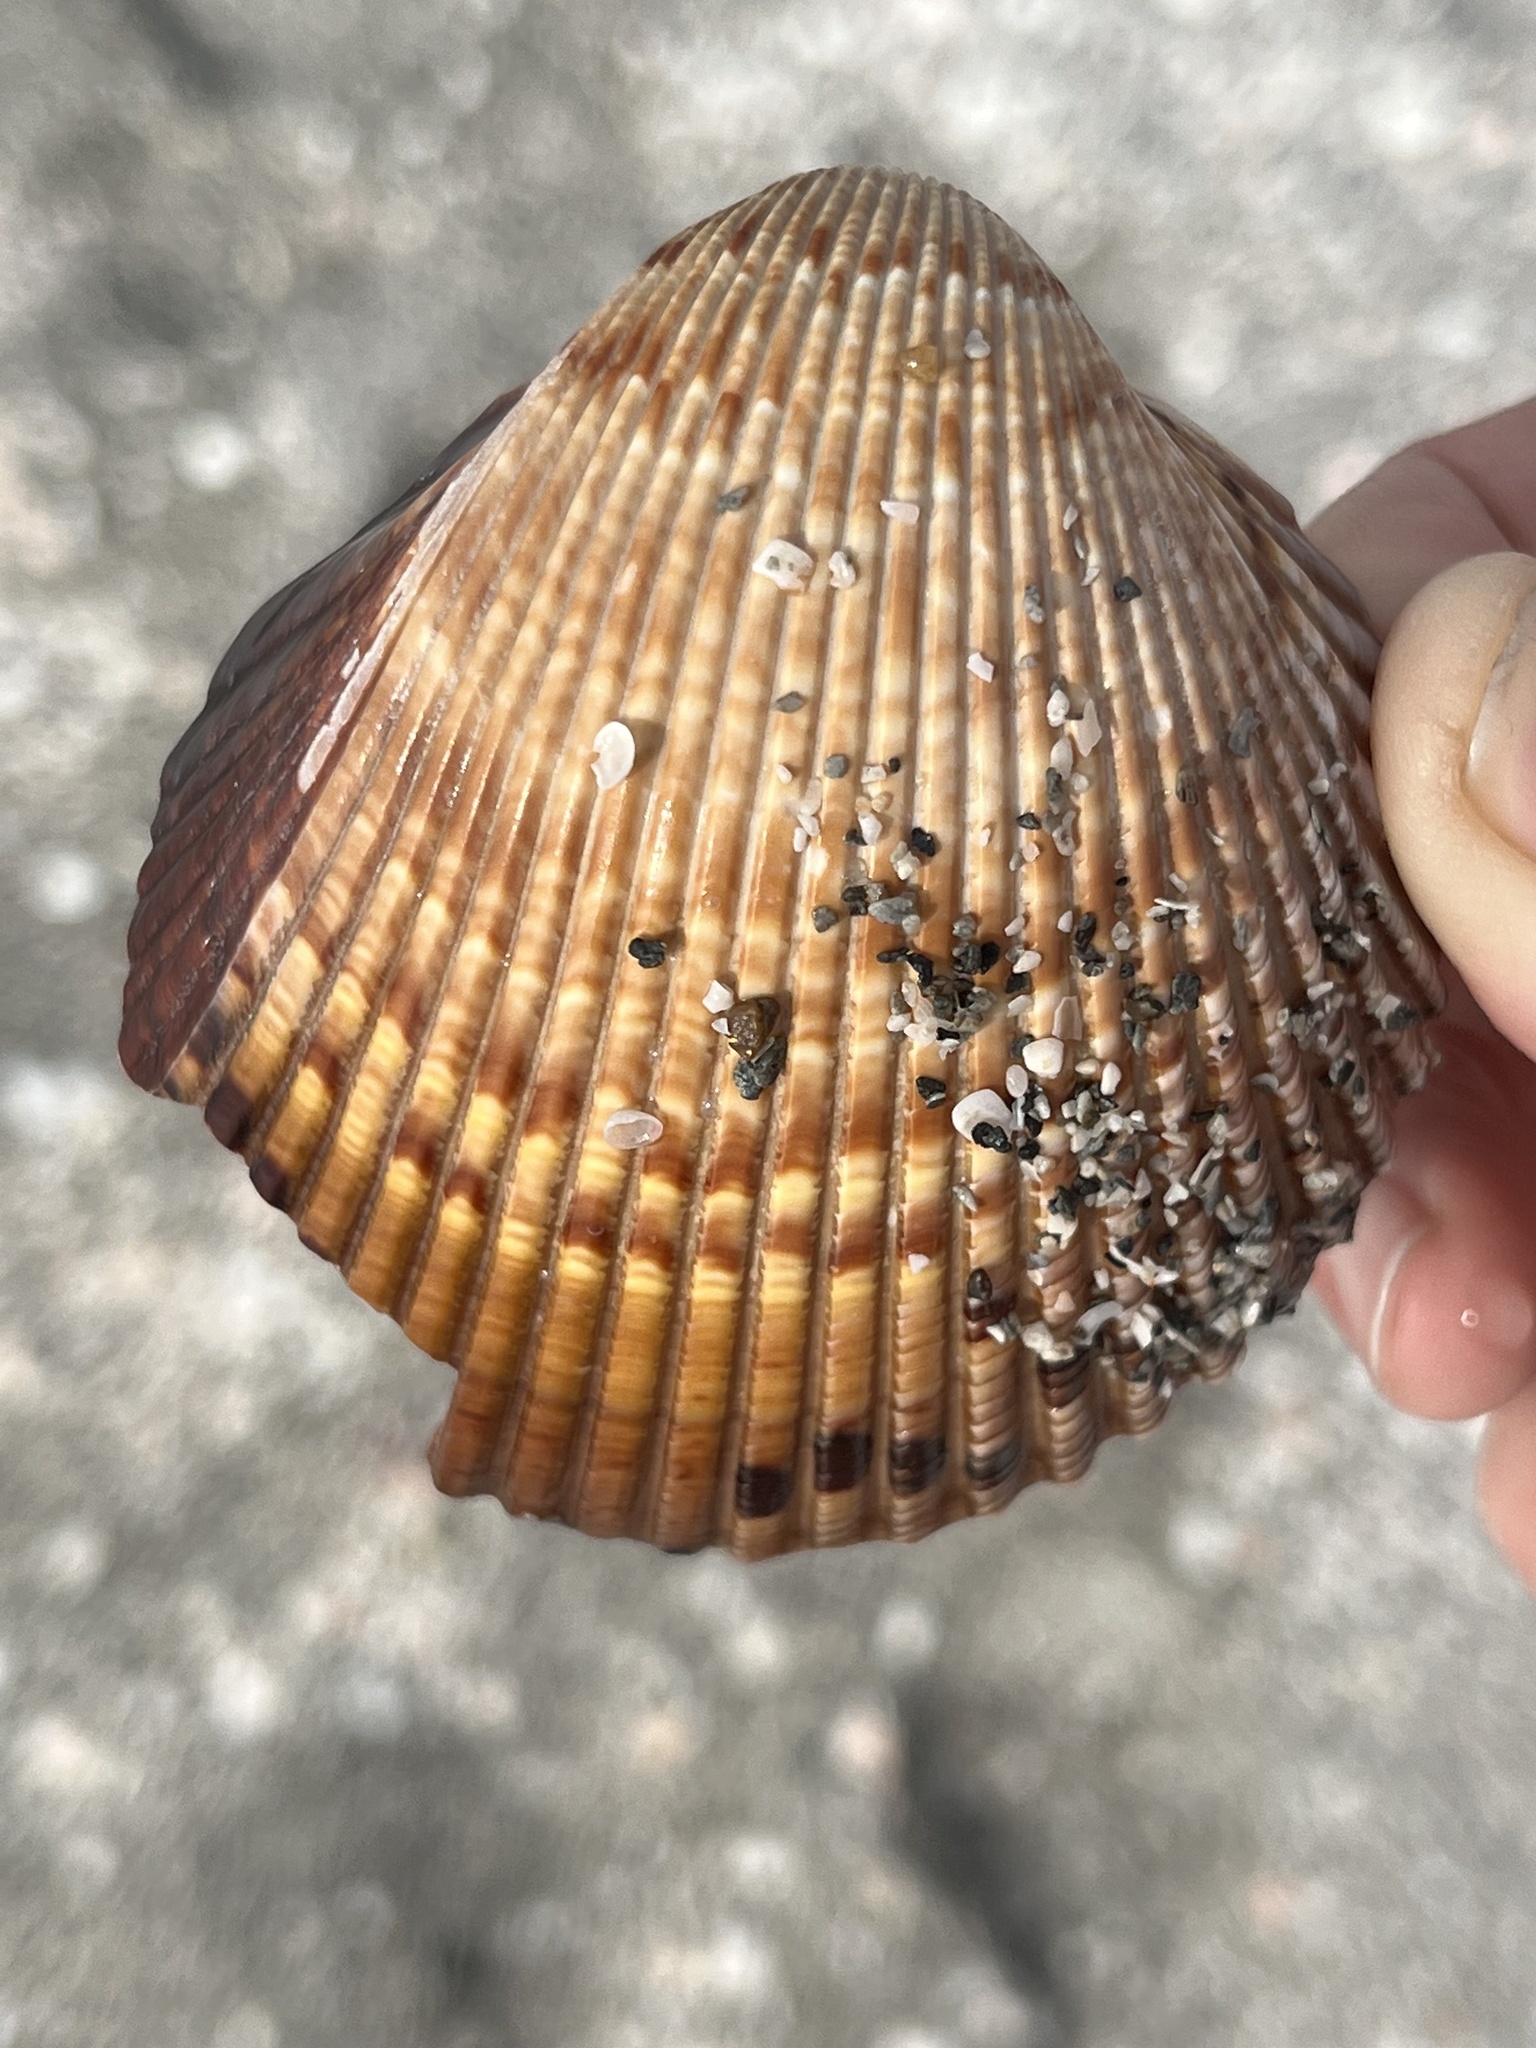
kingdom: Animalia
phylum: Mollusca
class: Bivalvia
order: Cardiida
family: Cardiidae
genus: Dinocardium
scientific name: Dinocardium robustum
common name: Atlantic giant cockle
